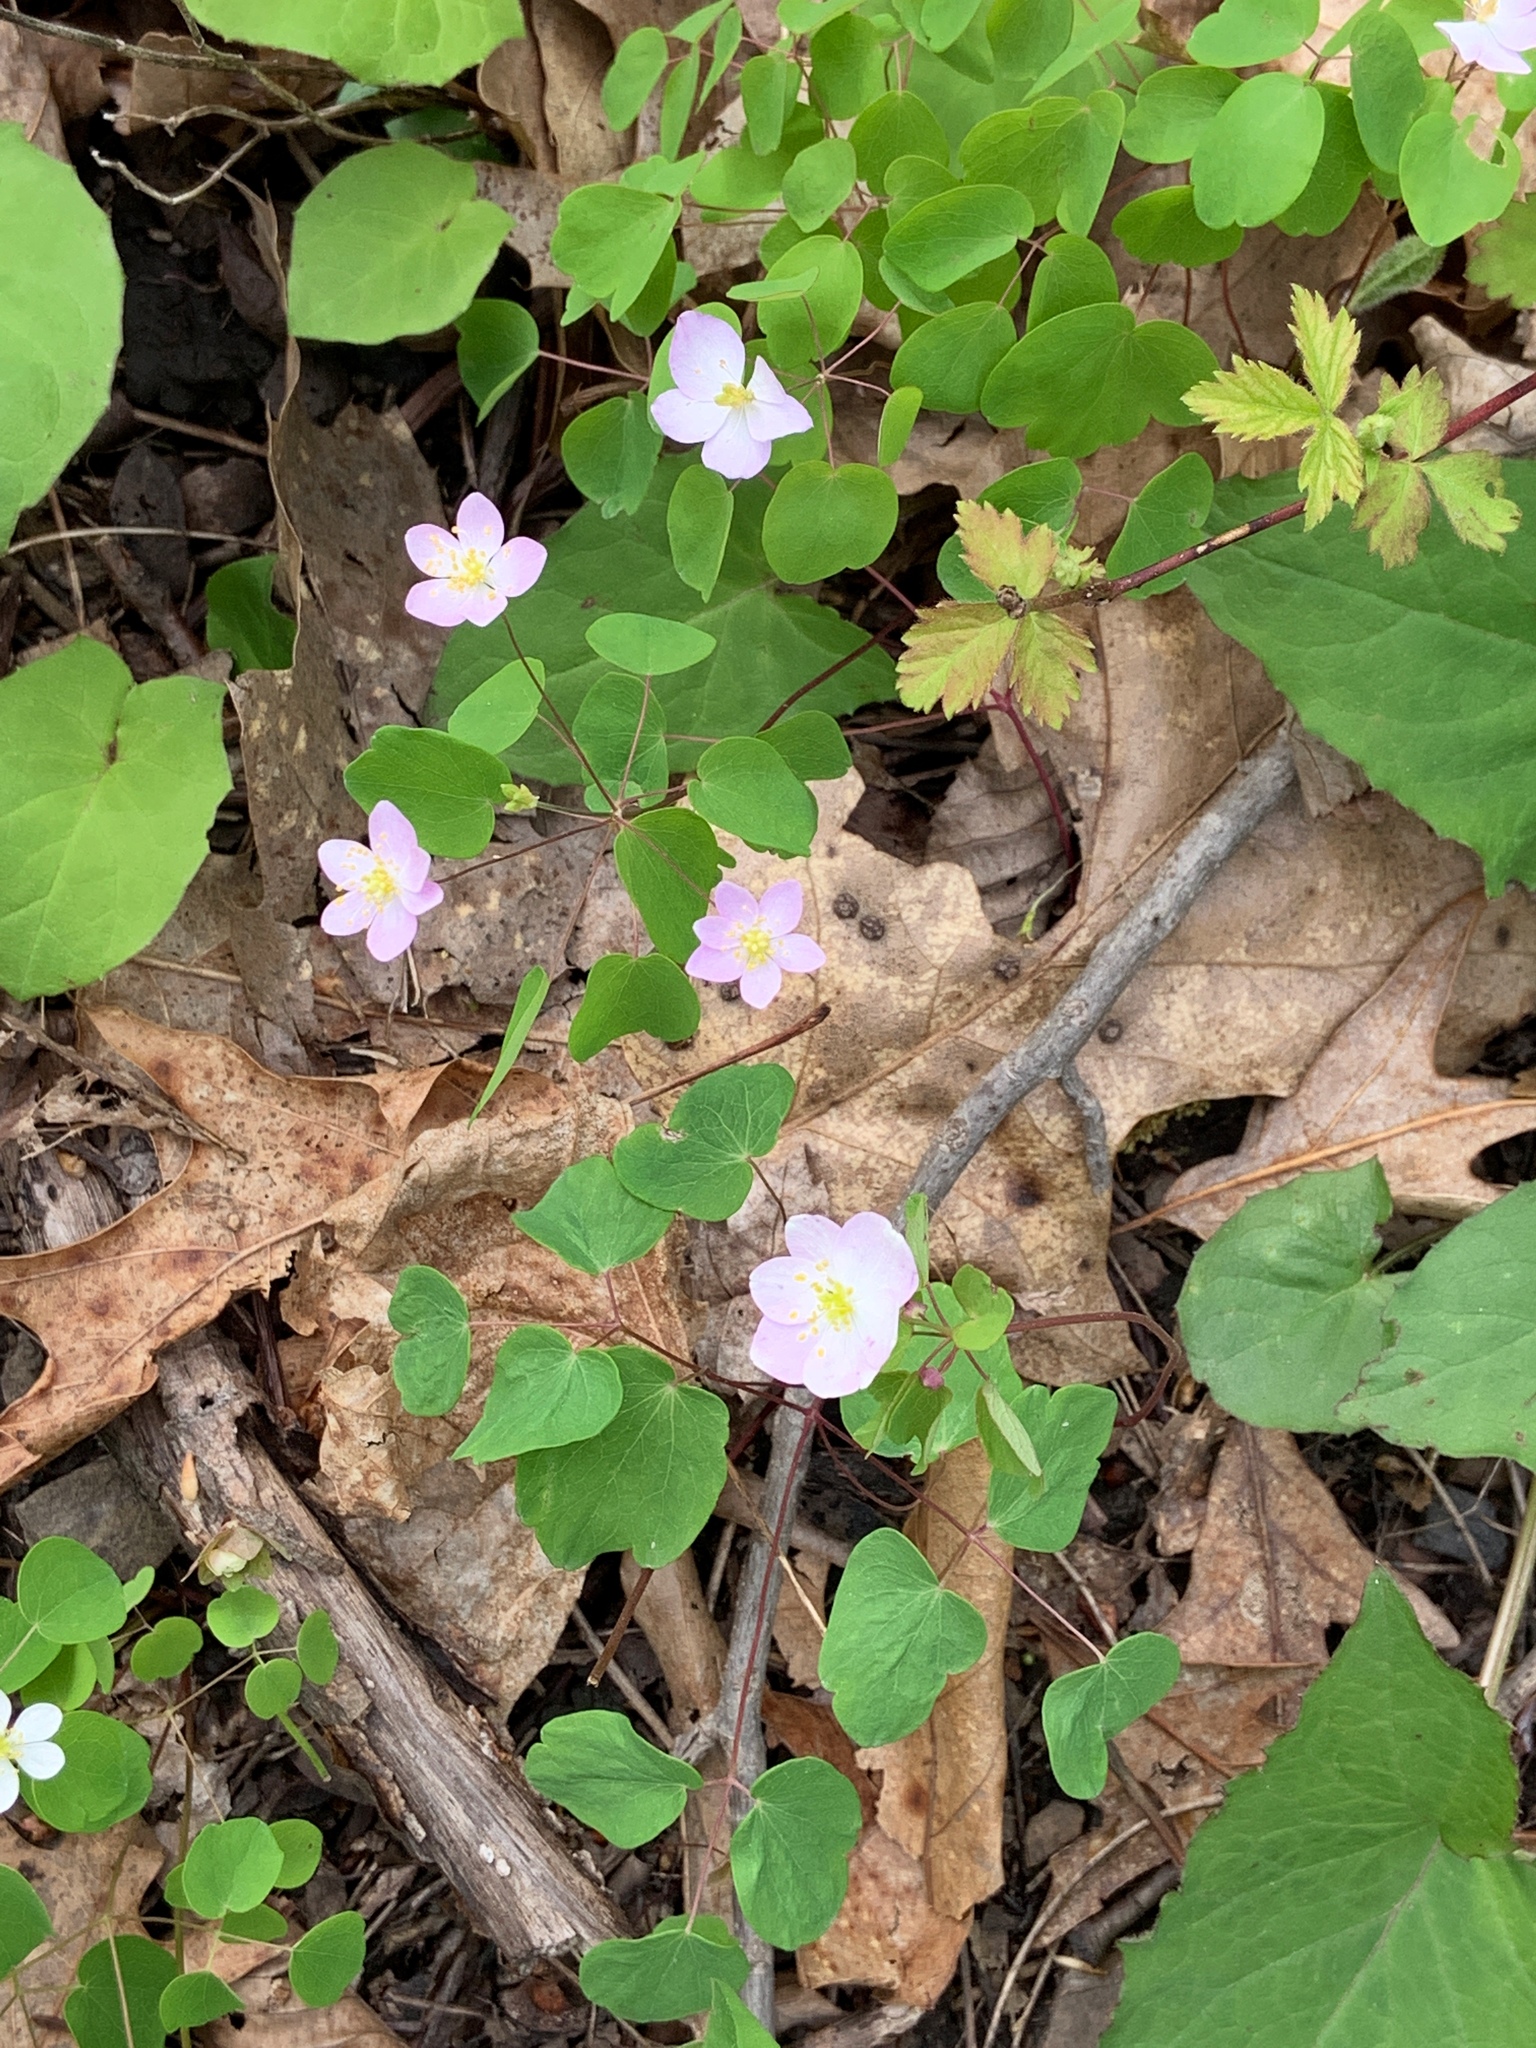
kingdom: Plantae
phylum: Tracheophyta
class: Magnoliopsida
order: Ranunculales
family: Ranunculaceae
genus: Thalictrum
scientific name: Thalictrum thalictroides
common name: Rue-anemone
